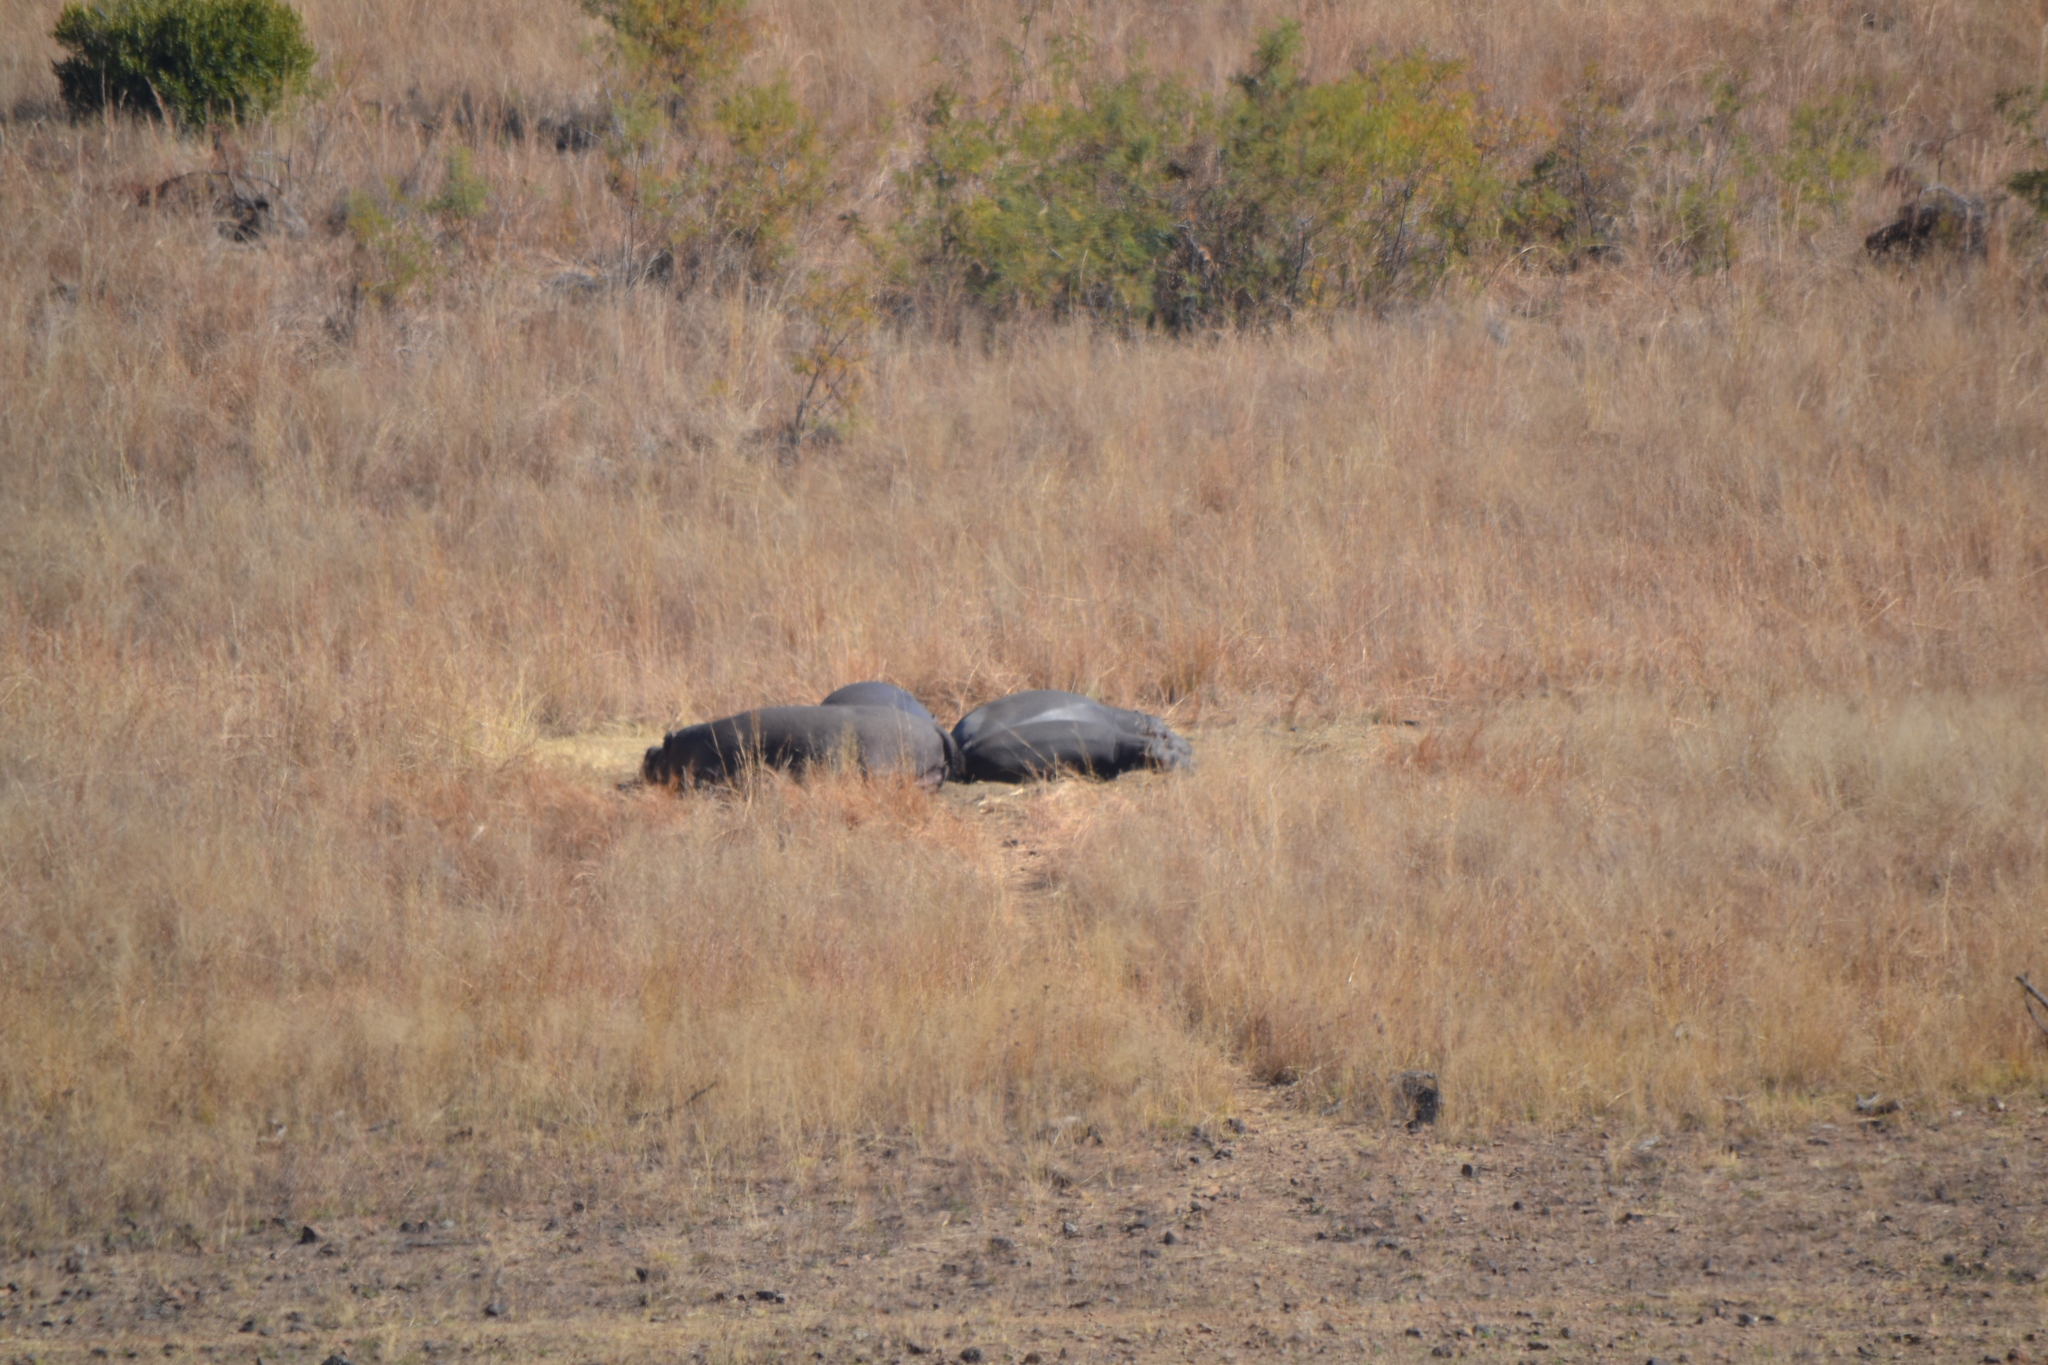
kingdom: Animalia
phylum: Chordata
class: Mammalia
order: Artiodactyla
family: Hippopotamidae
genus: Hippopotamus
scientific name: Hippopotamus amphibius
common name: Common hippopotamus
